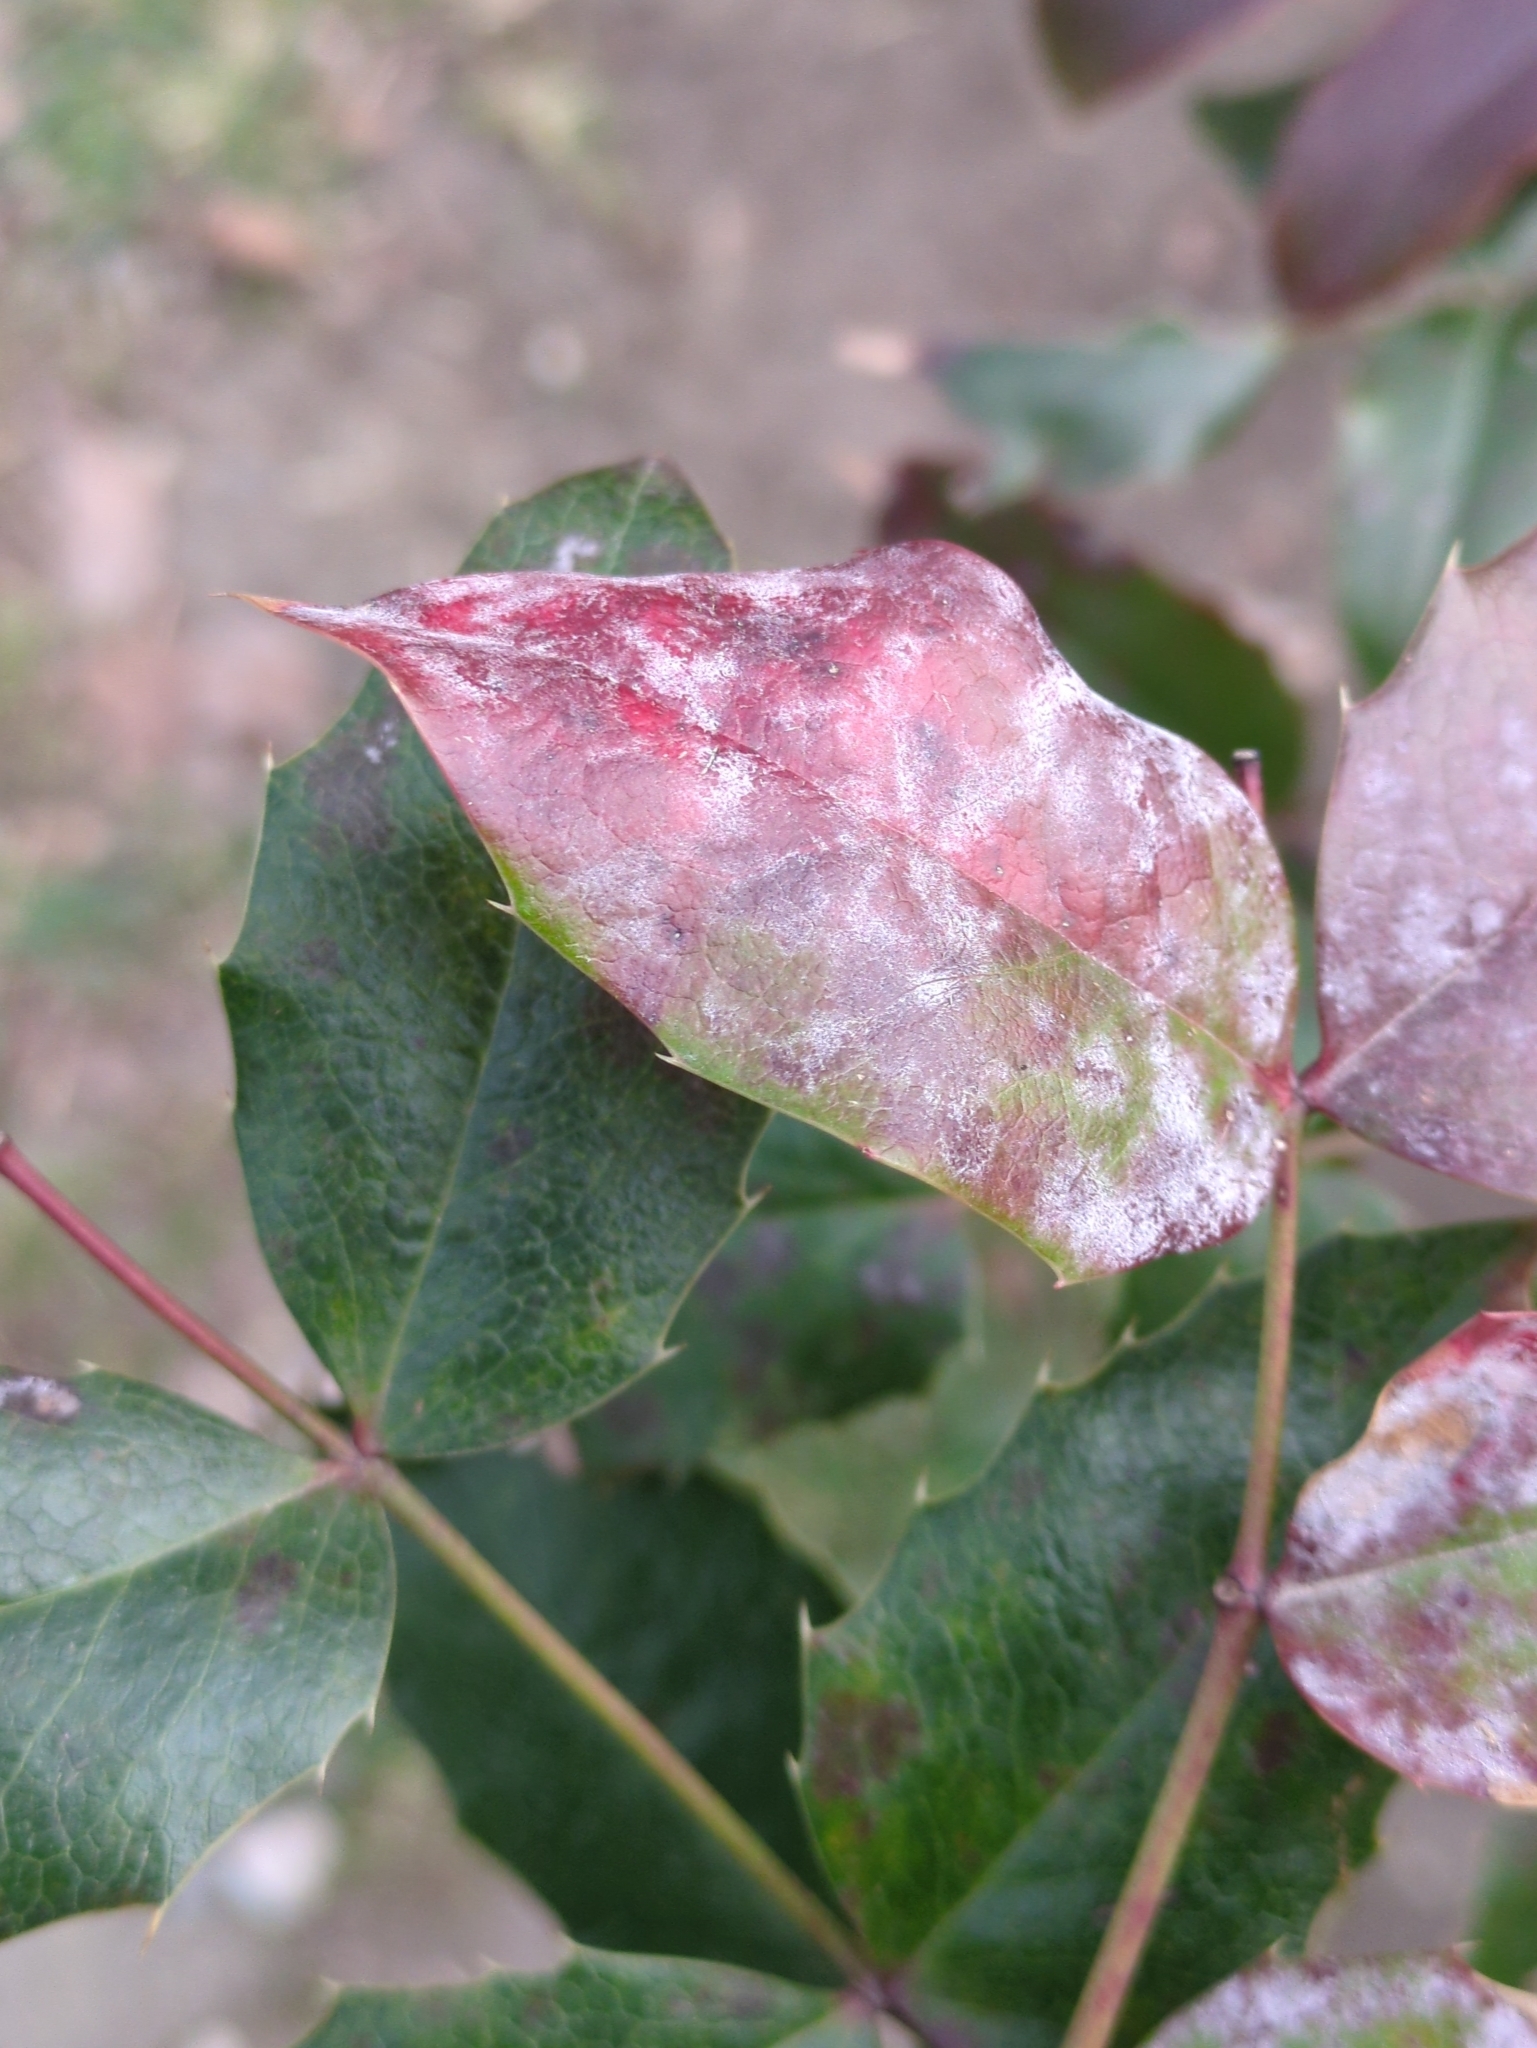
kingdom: Fungi
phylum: Ascomycota
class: Leotiomycetes
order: Helotiales
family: Erysiphaceae
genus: Erysiphe
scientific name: Erysiphe berberidis
